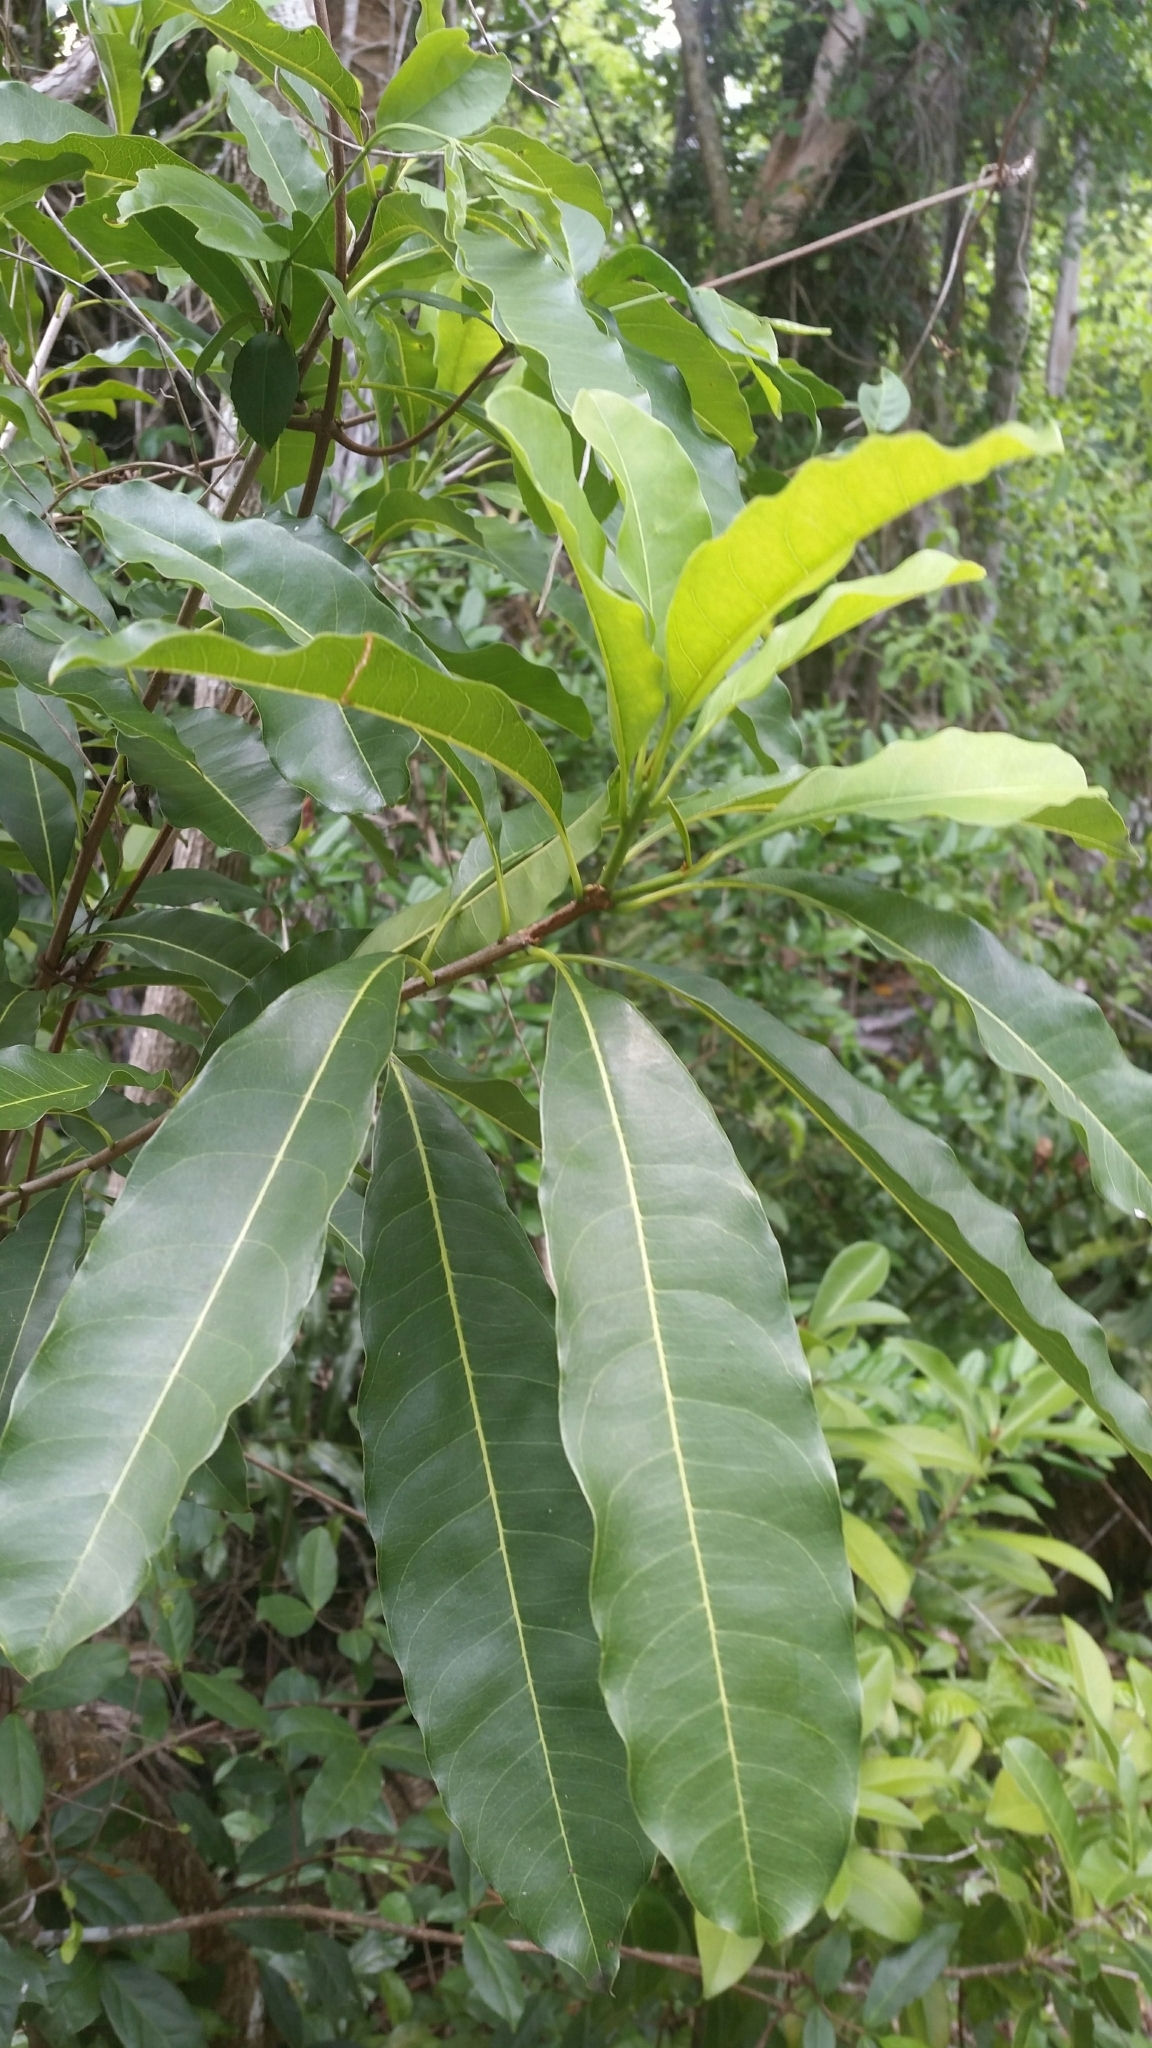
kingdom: Plantae
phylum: Tracheophyta
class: Magnoliopsida
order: Ericales
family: Sapotaceae
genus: Sideroxylon
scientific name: Sideroxylon foetidissimum
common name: Barbados-mastic
